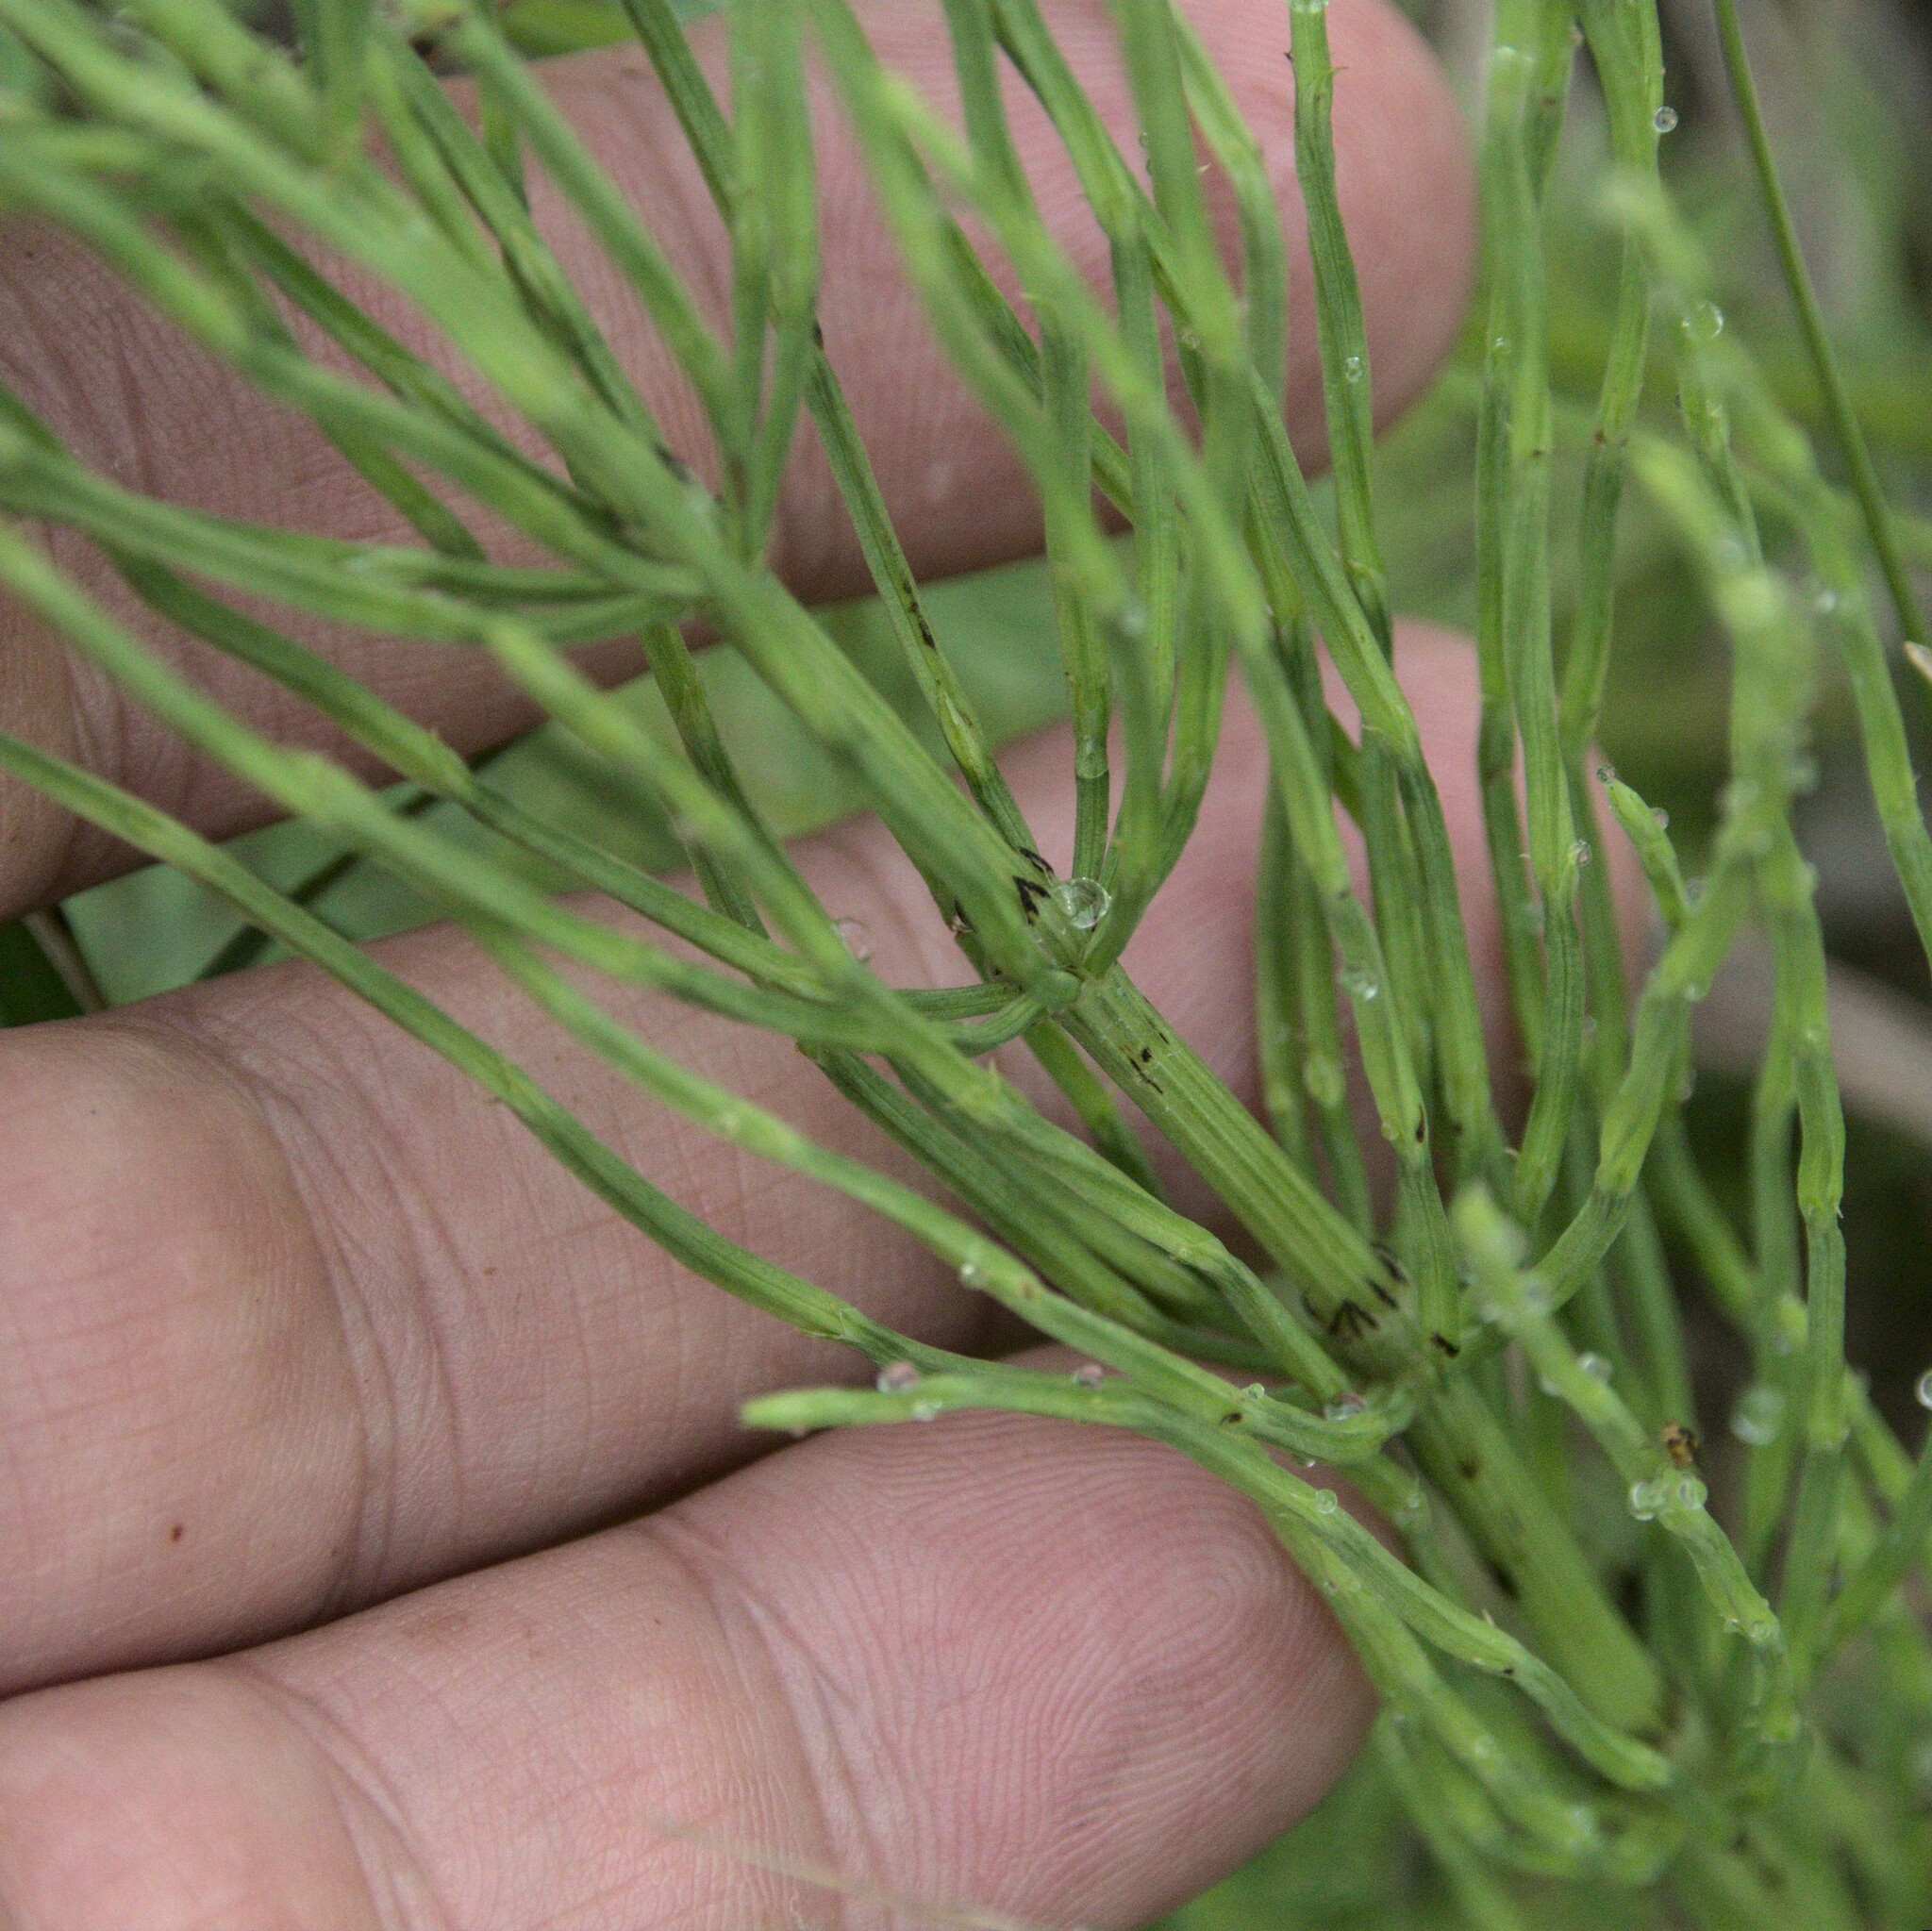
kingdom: Plantae
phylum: Tracheophyta
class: Polypodiopsida
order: Equisetales
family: Equisetaceae
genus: Equisetum
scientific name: Equisetum arvense
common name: Field horsetail
